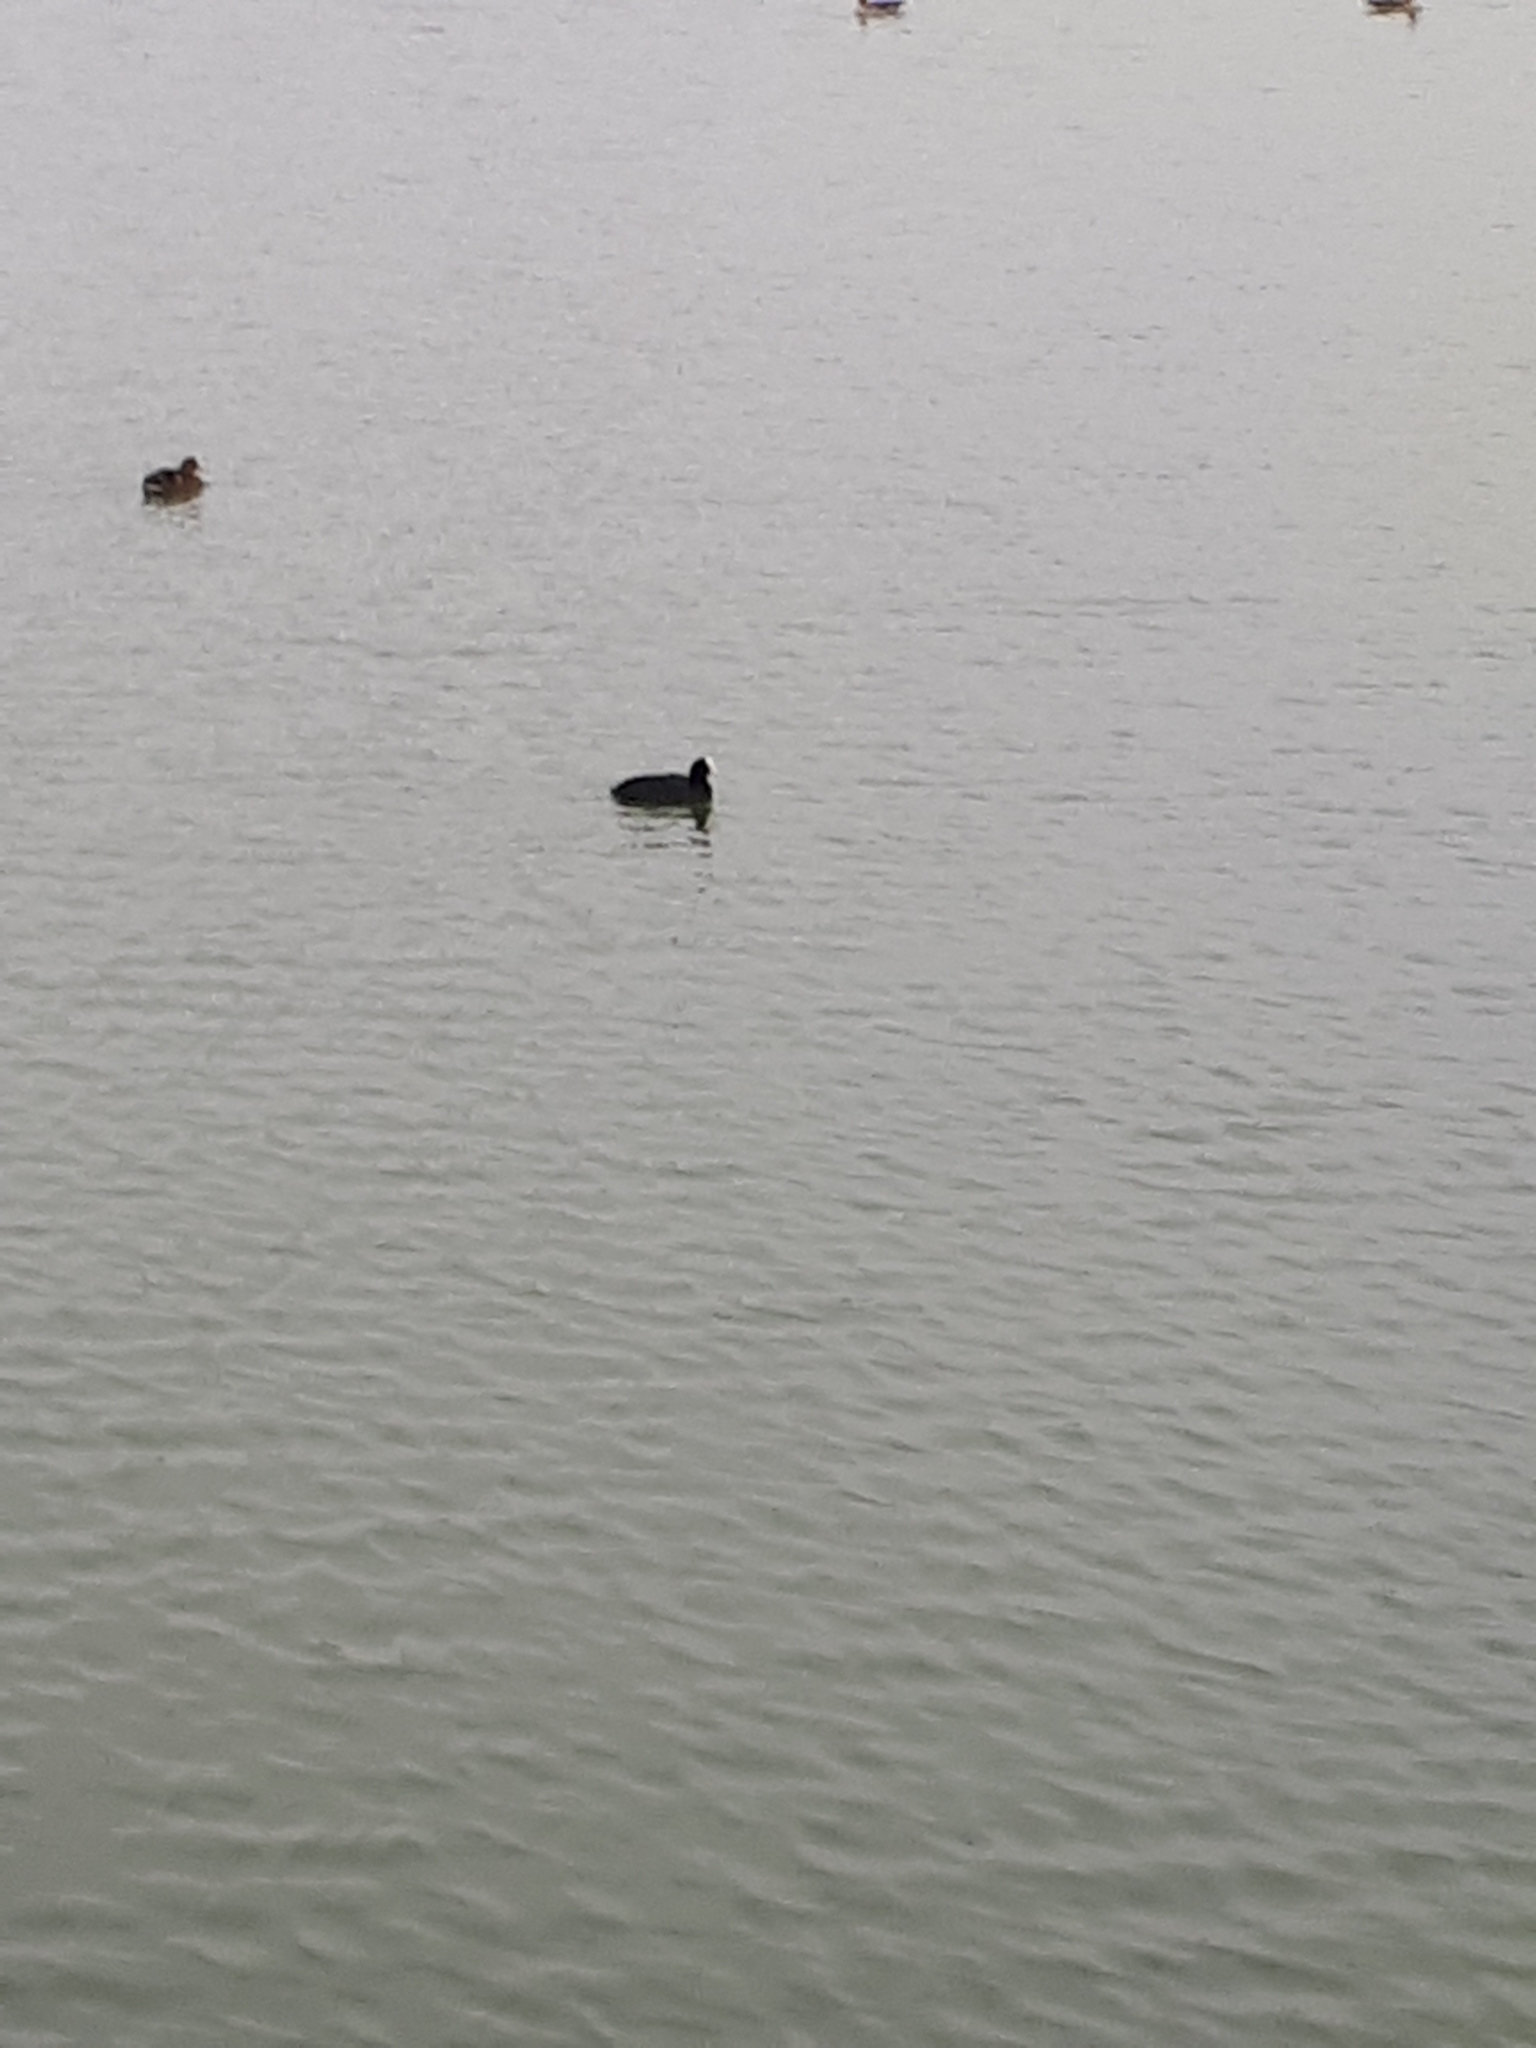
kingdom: Animalia
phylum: Chordata
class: Aves
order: Gruiformes
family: Rallidae
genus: Fulica
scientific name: Fulica atra
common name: Eurasian coot
